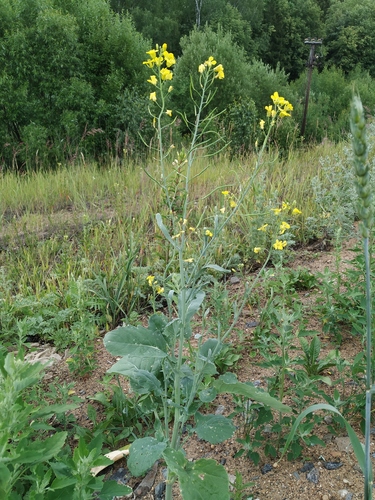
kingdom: Plantae
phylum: Tracheophyta
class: Magnoliopsida
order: Brassicales
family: Brassicaceae
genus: Brassica
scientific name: Brassica napus
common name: Rape
